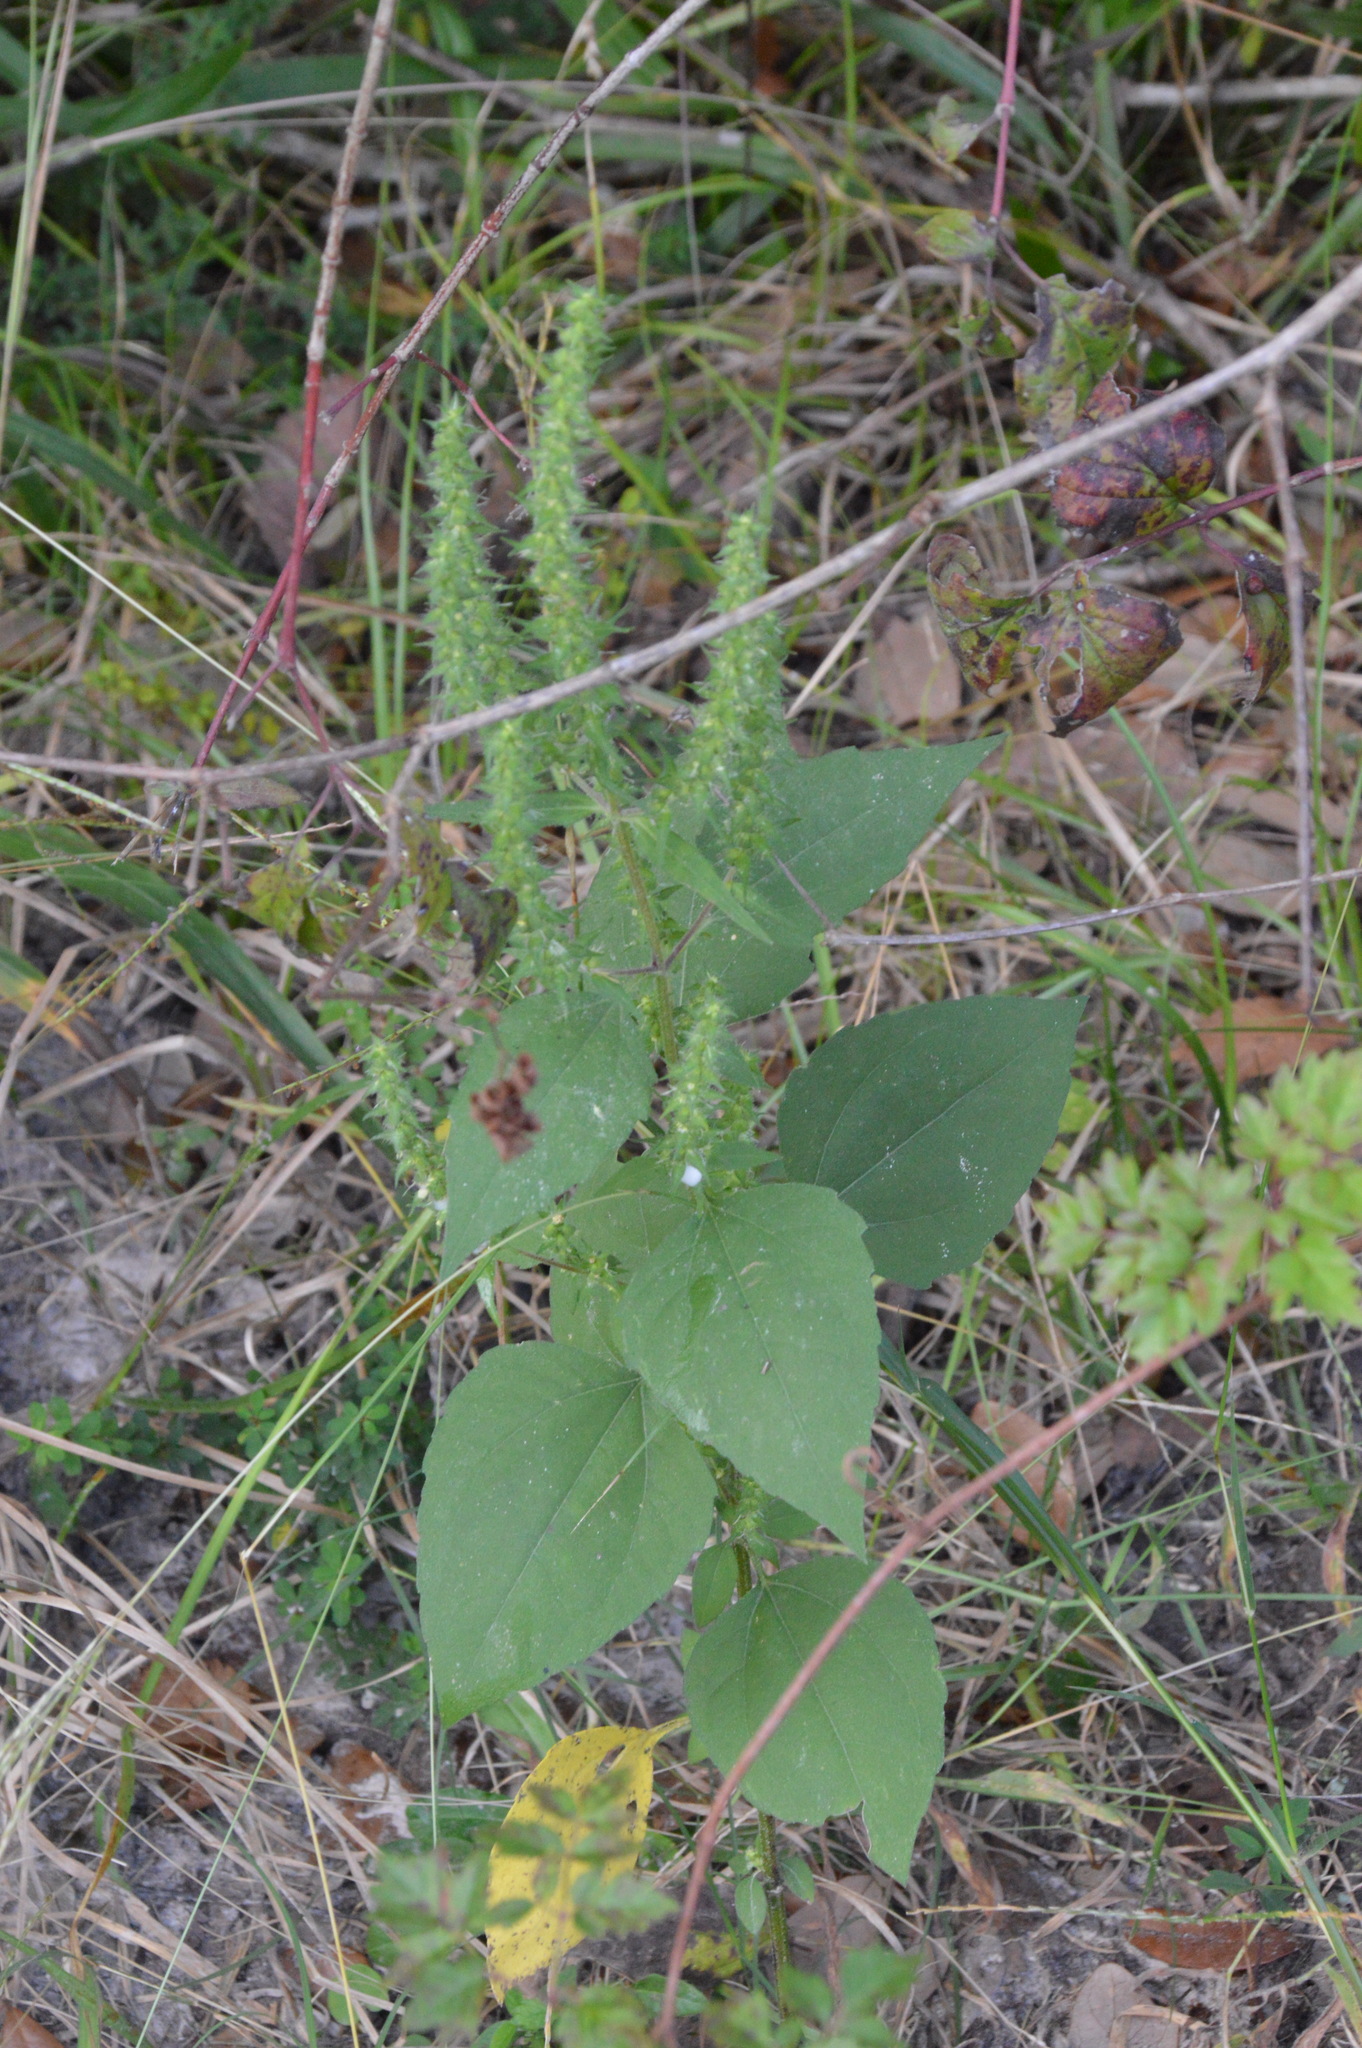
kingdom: Plantae
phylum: Tracheophyta
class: Magnoliopsida
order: Asterales
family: Asteraceae
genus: Iva
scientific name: Iva annua
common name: Marsh-elder
